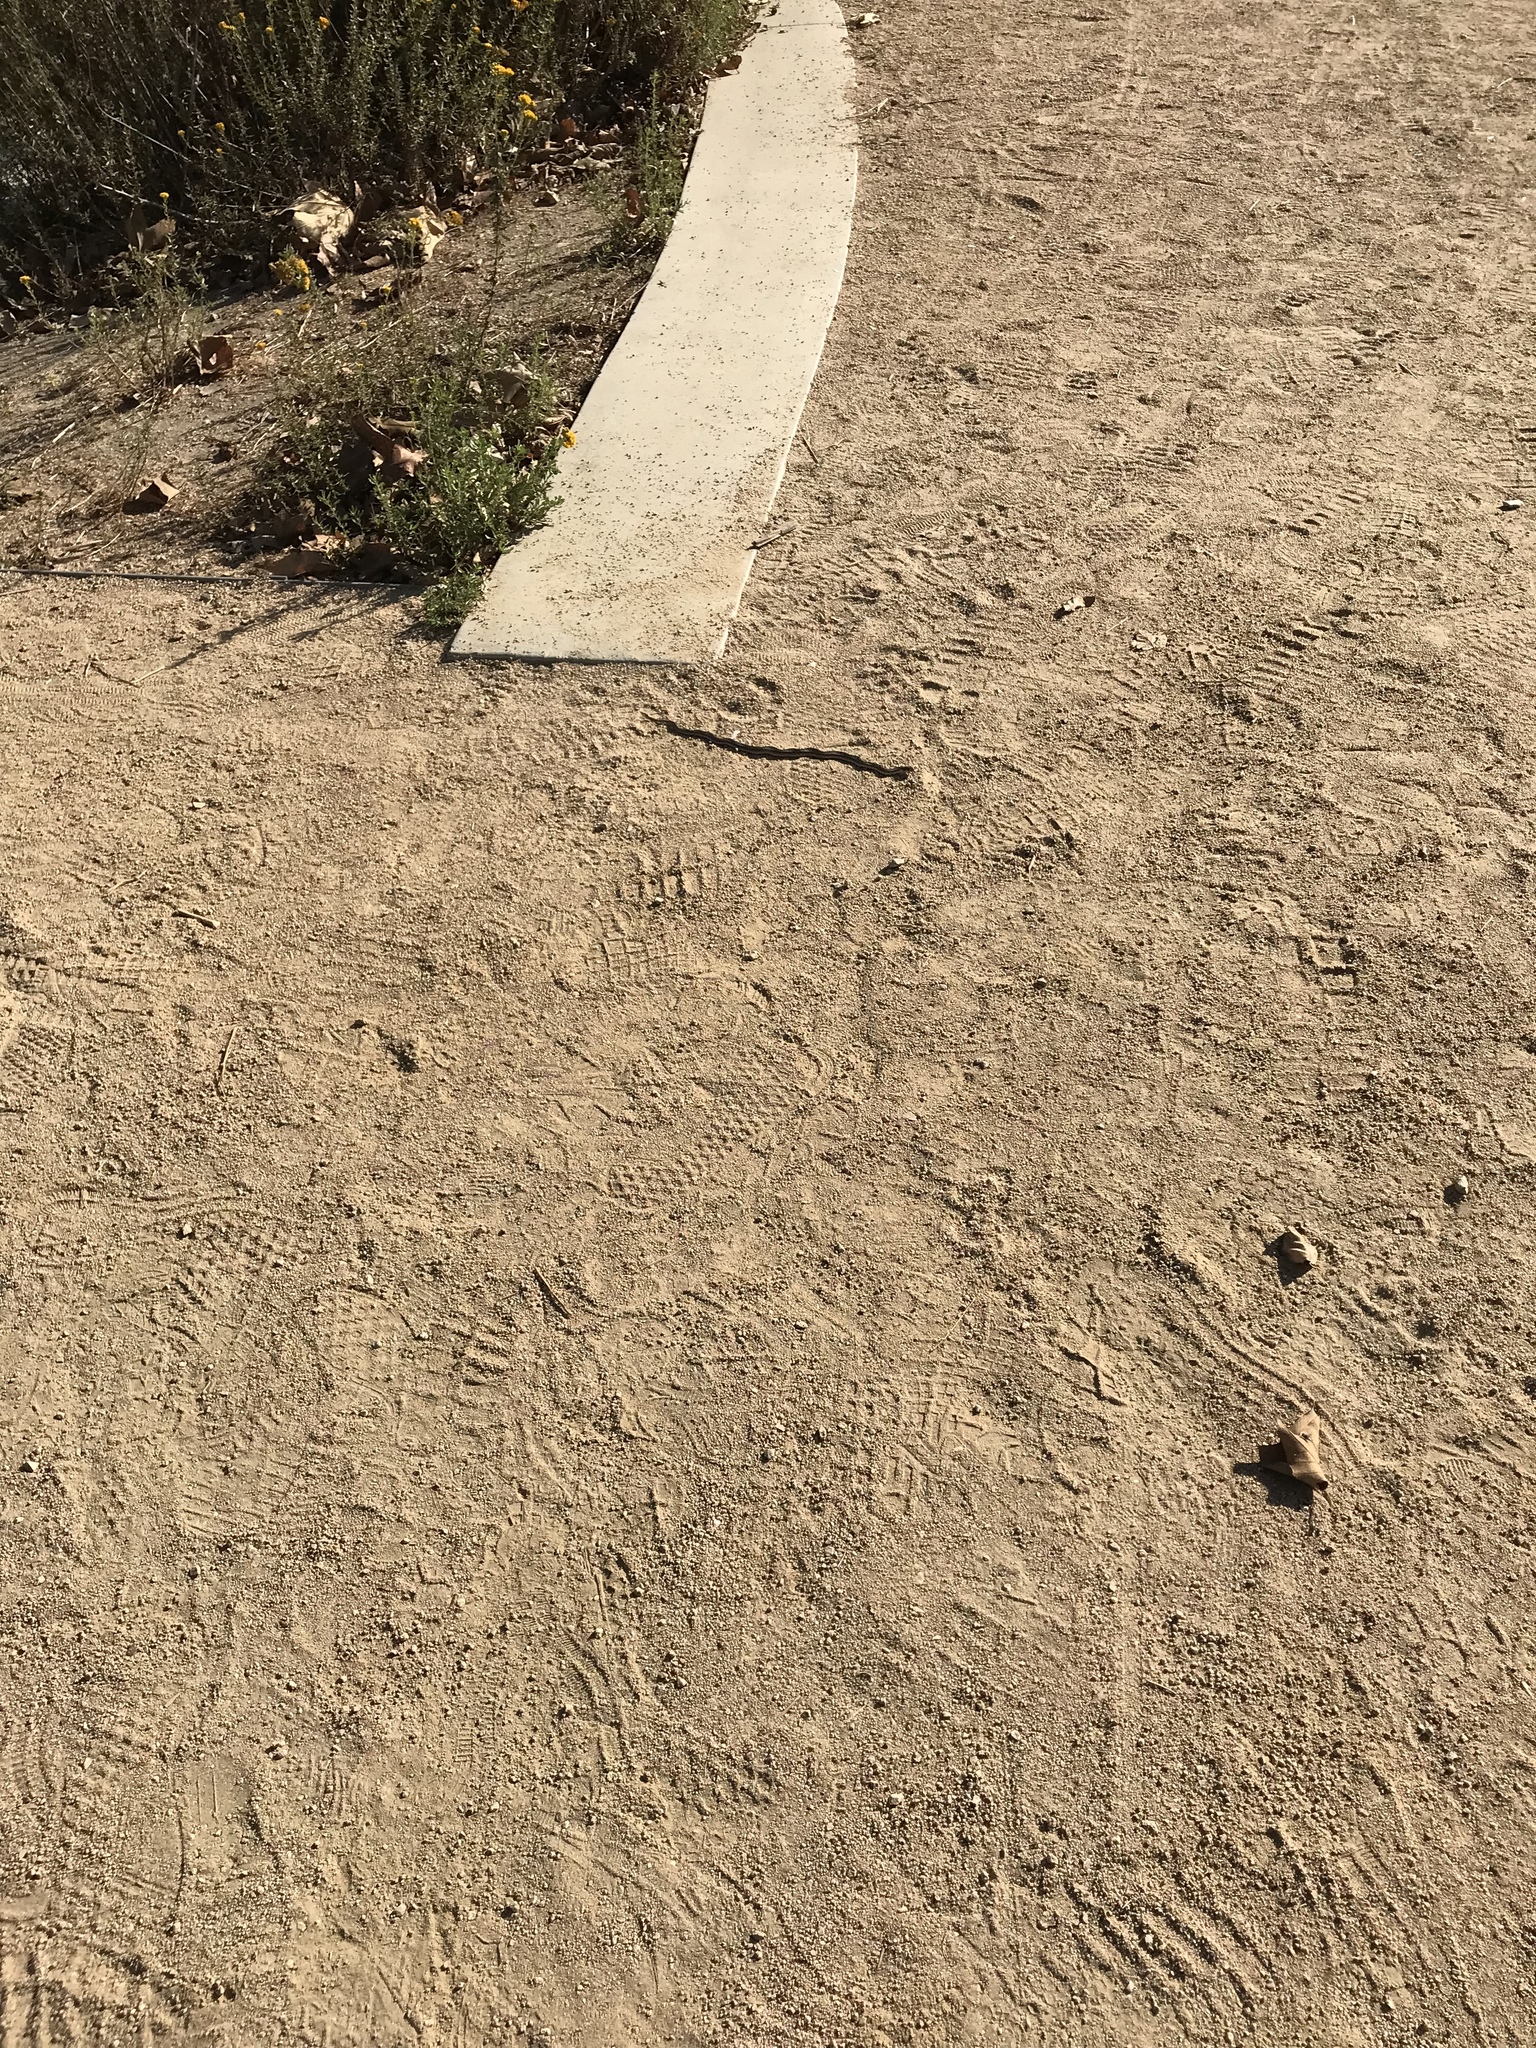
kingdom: Animalia
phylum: Chordata
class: Squamata
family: Colubridae
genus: Pituophis
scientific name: Pituophis catenifer
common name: Gopher snake
